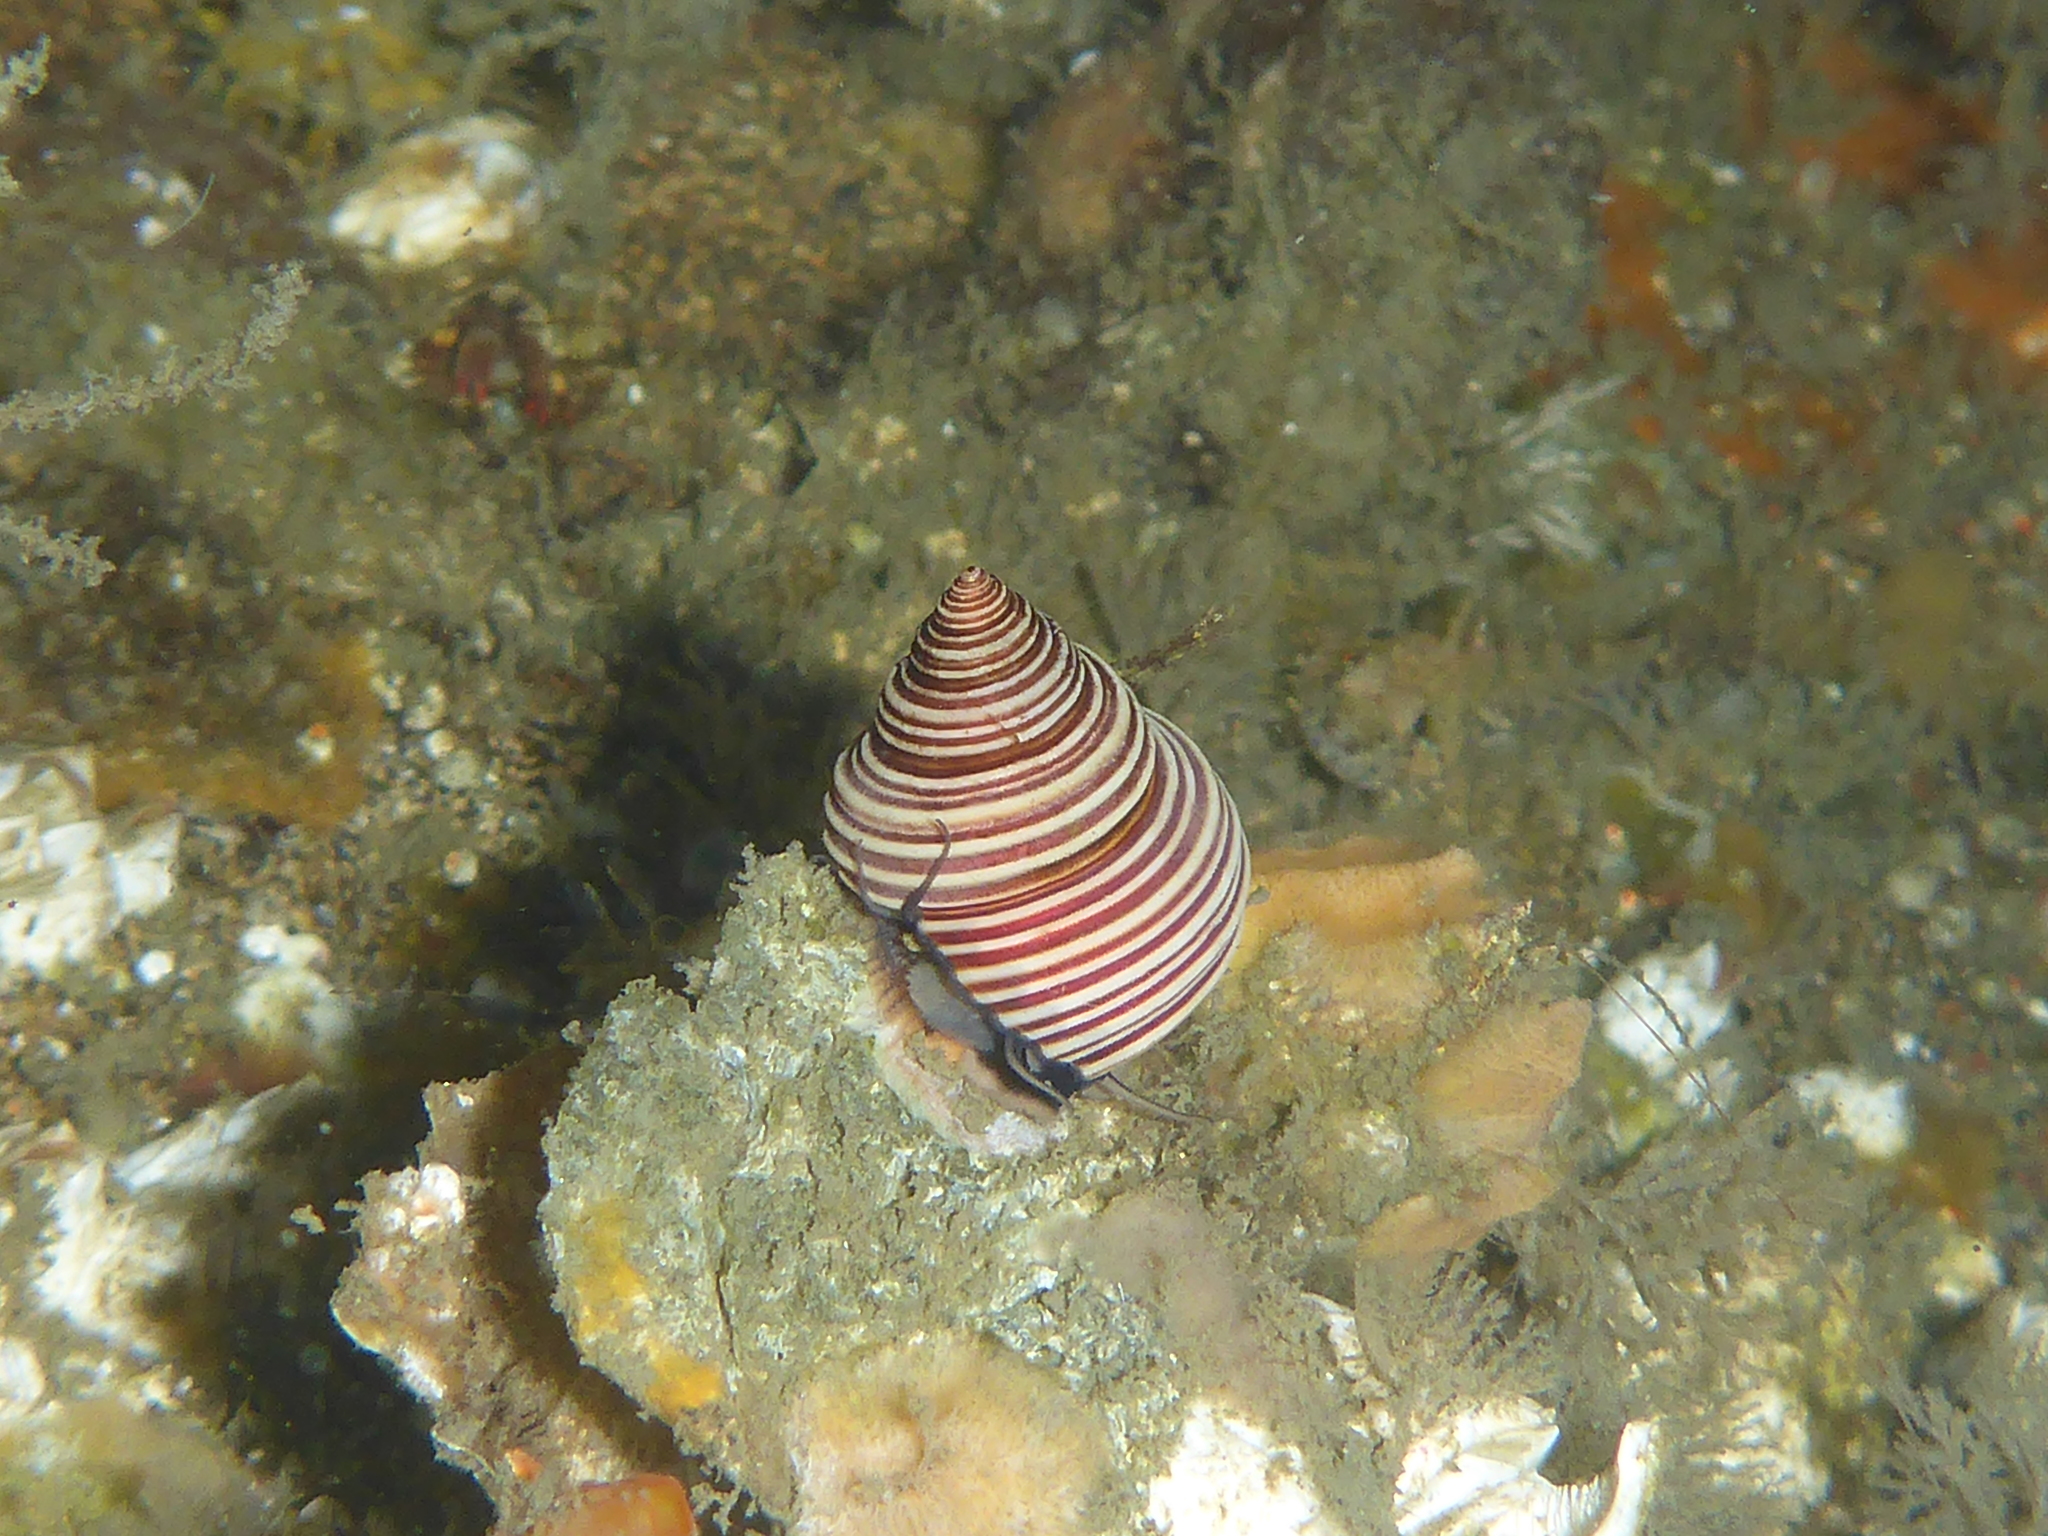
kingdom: Animalia
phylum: Mollusca
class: Gastropoda
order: Trochida
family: Calliostomatidae
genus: Calliostoma
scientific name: Calliostoma ligatum
